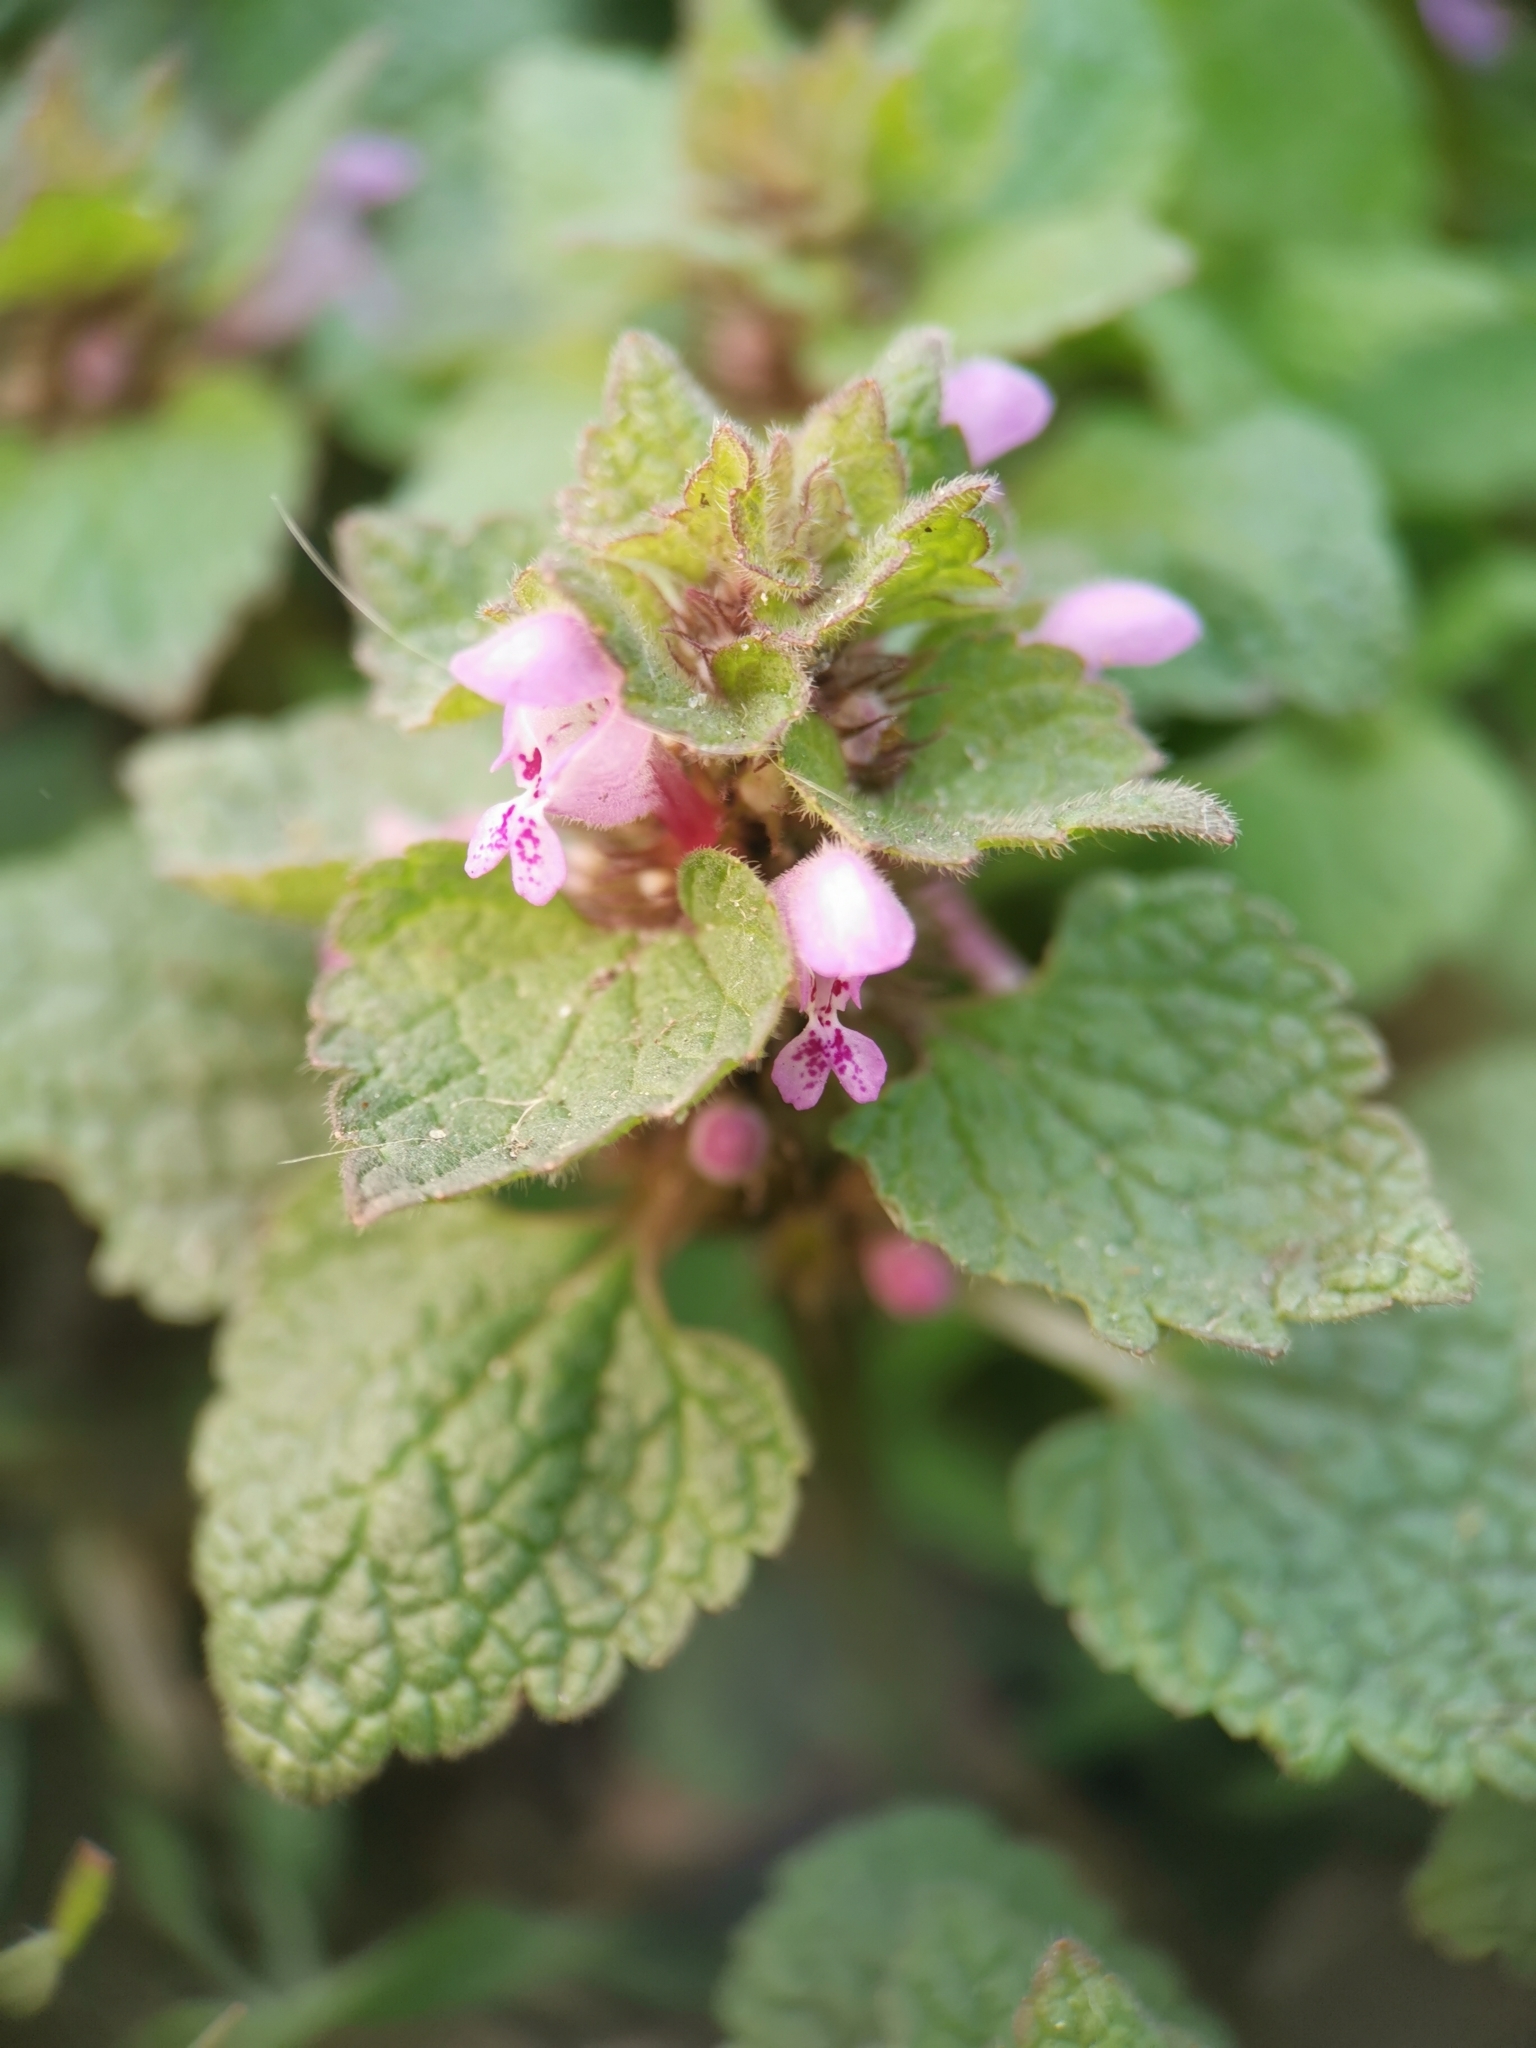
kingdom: Plantae
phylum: Tracheophyta
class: Magnoliopsida
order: Lamiales
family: Lamiaceae
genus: Lamium
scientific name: Lamium purpureum
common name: Red dead-nettle
